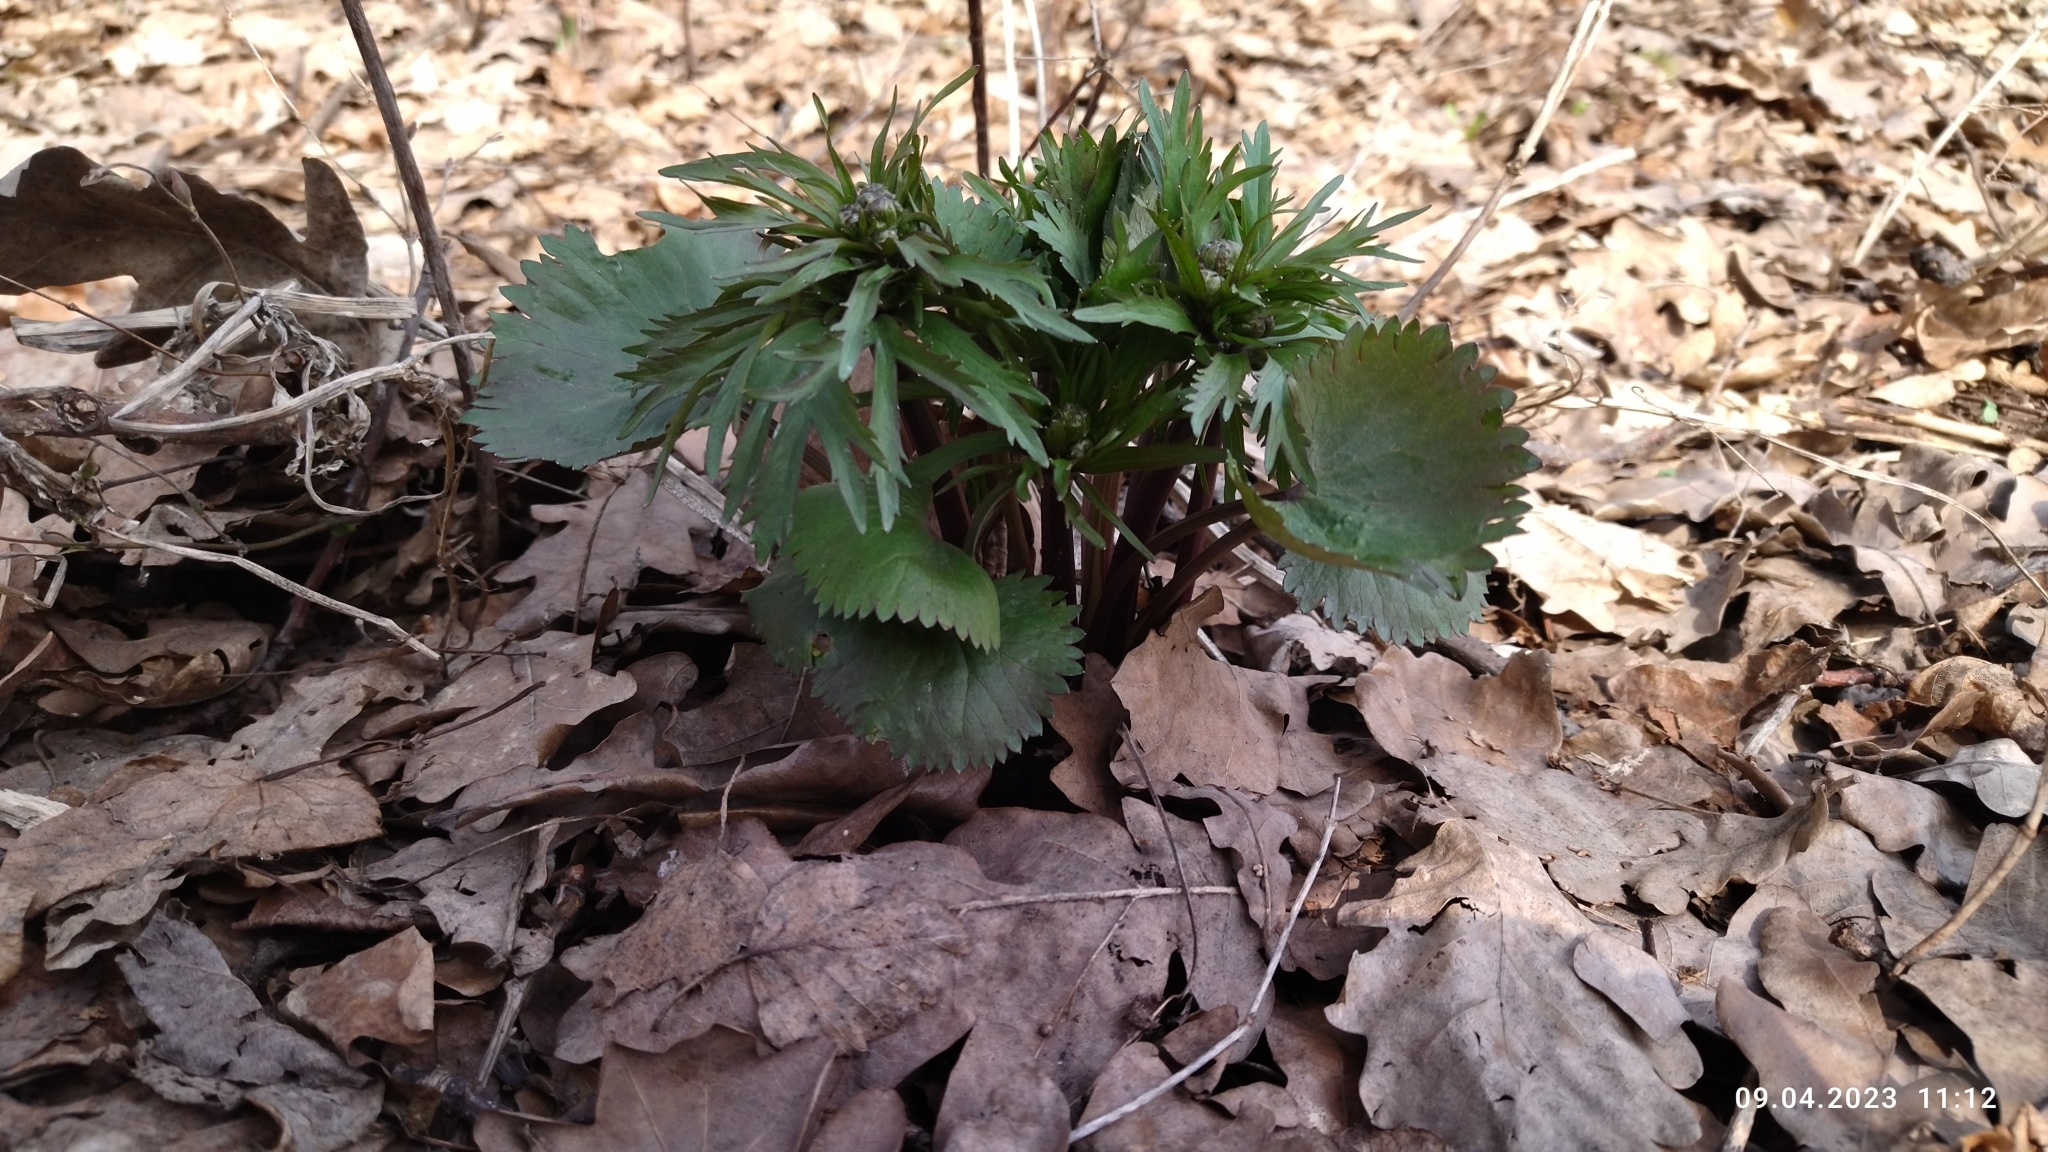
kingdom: Plantae
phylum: Tracheophyta
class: Magnoliopsida
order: Ranunculales
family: Ranunculaceae
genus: Ranunculus
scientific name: Ranunculus cassubicus
